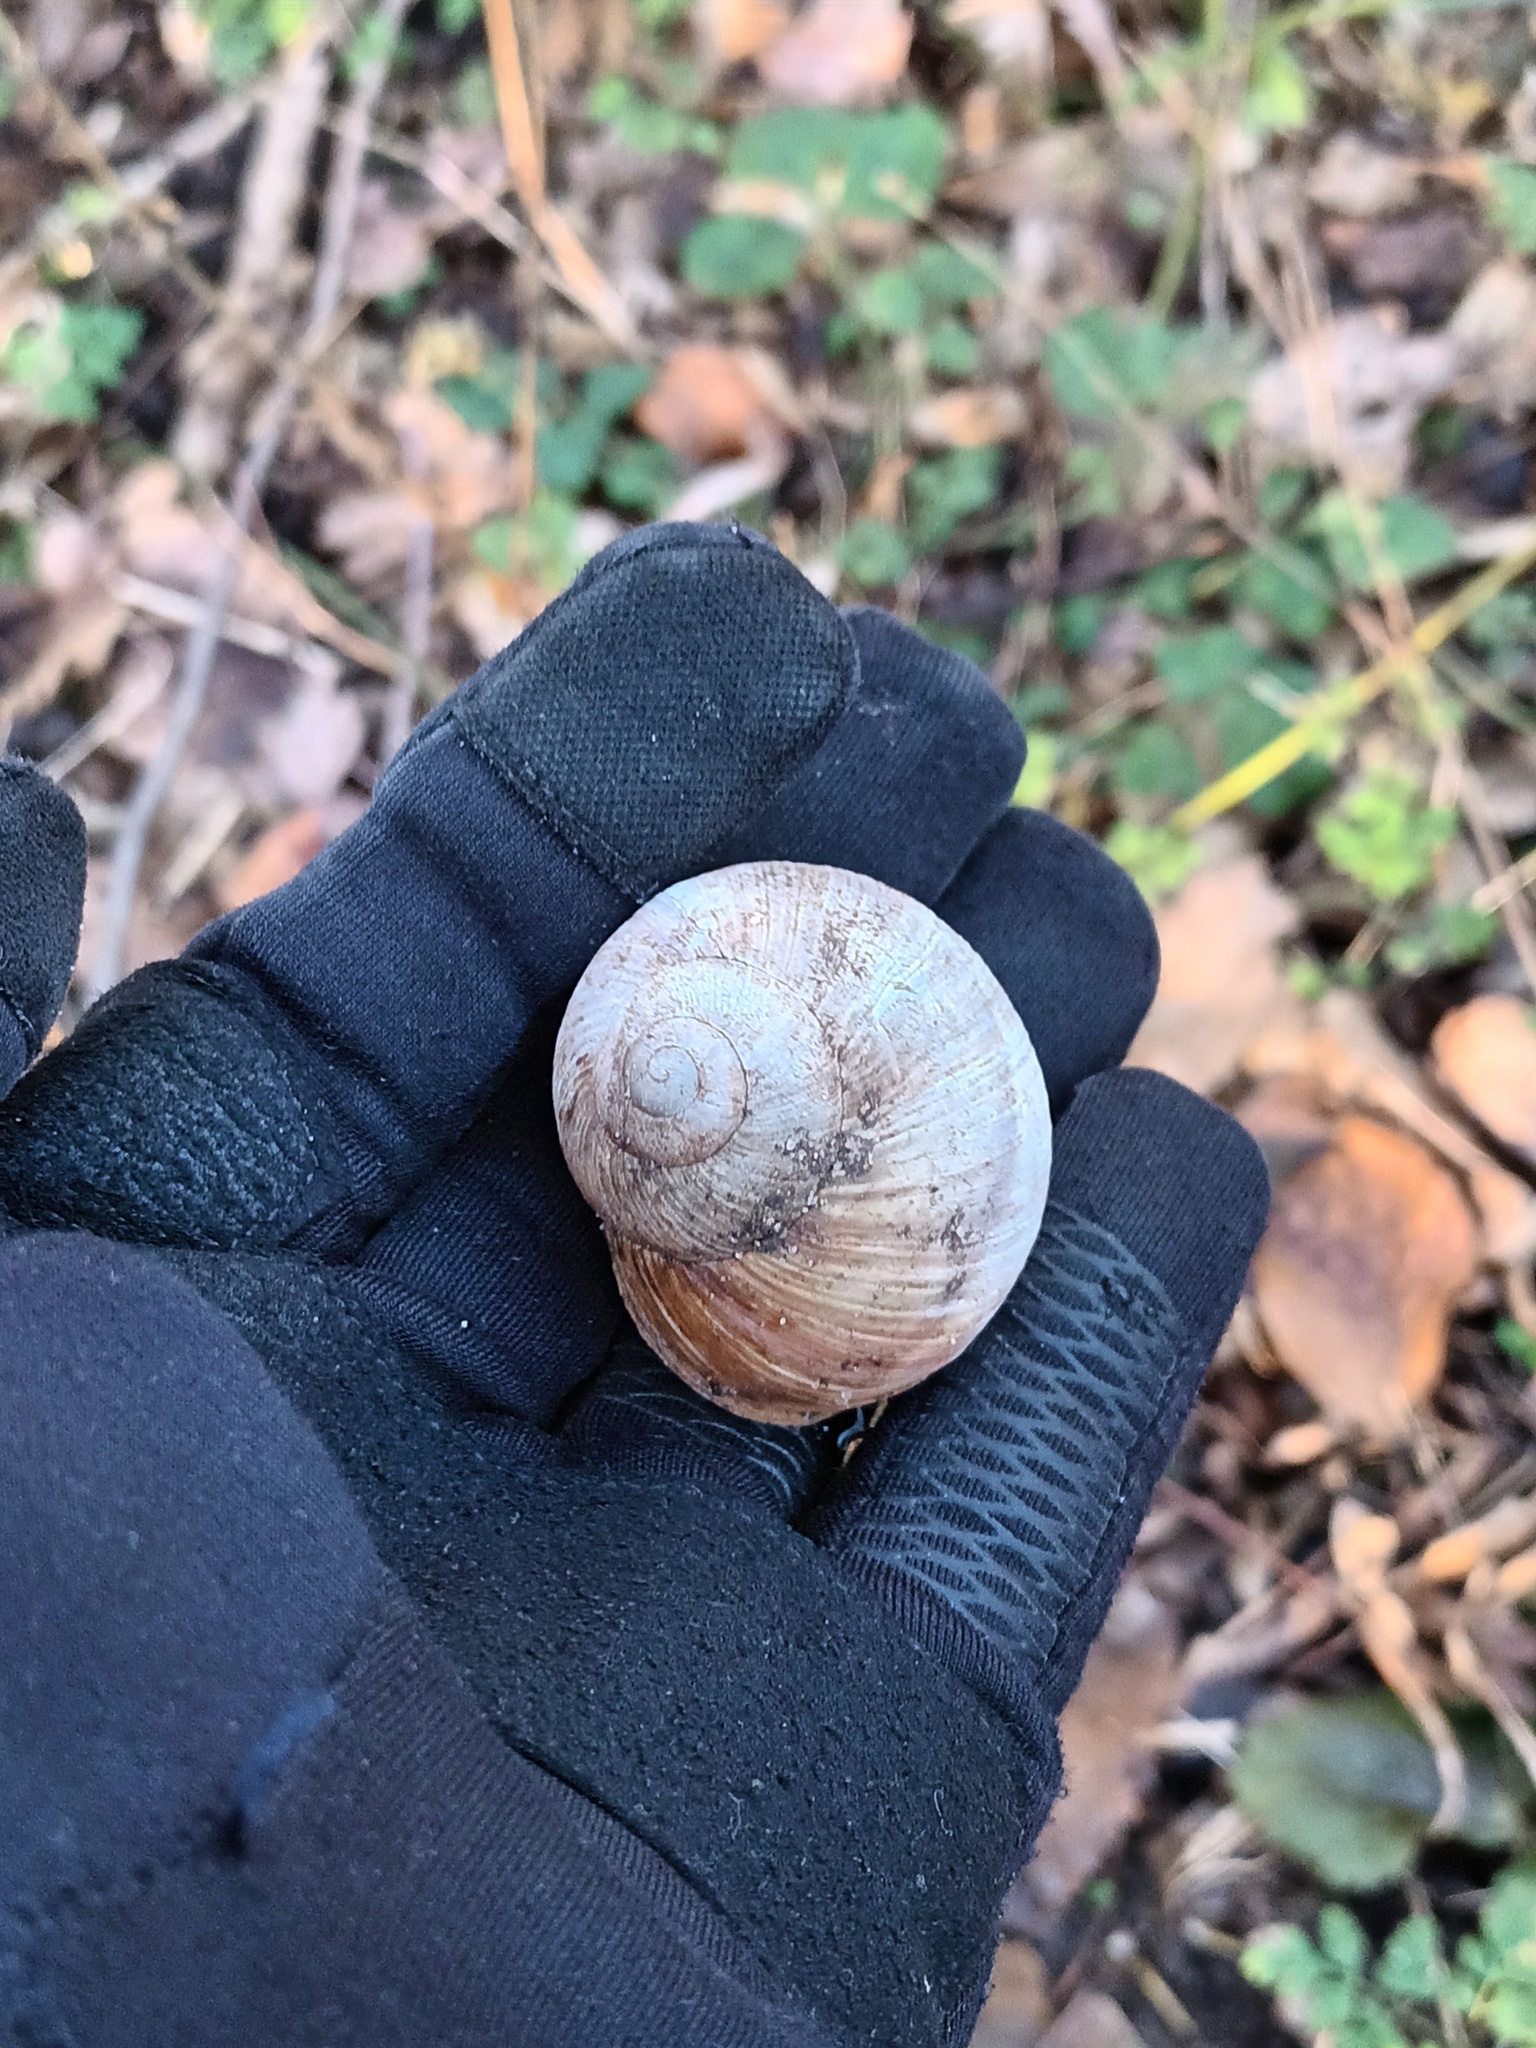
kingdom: Animalia
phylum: Mollusca
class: Gastropoda
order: Stylommatophora
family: Helicidae
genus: Helix
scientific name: Helix pomatia
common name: Roman snail
